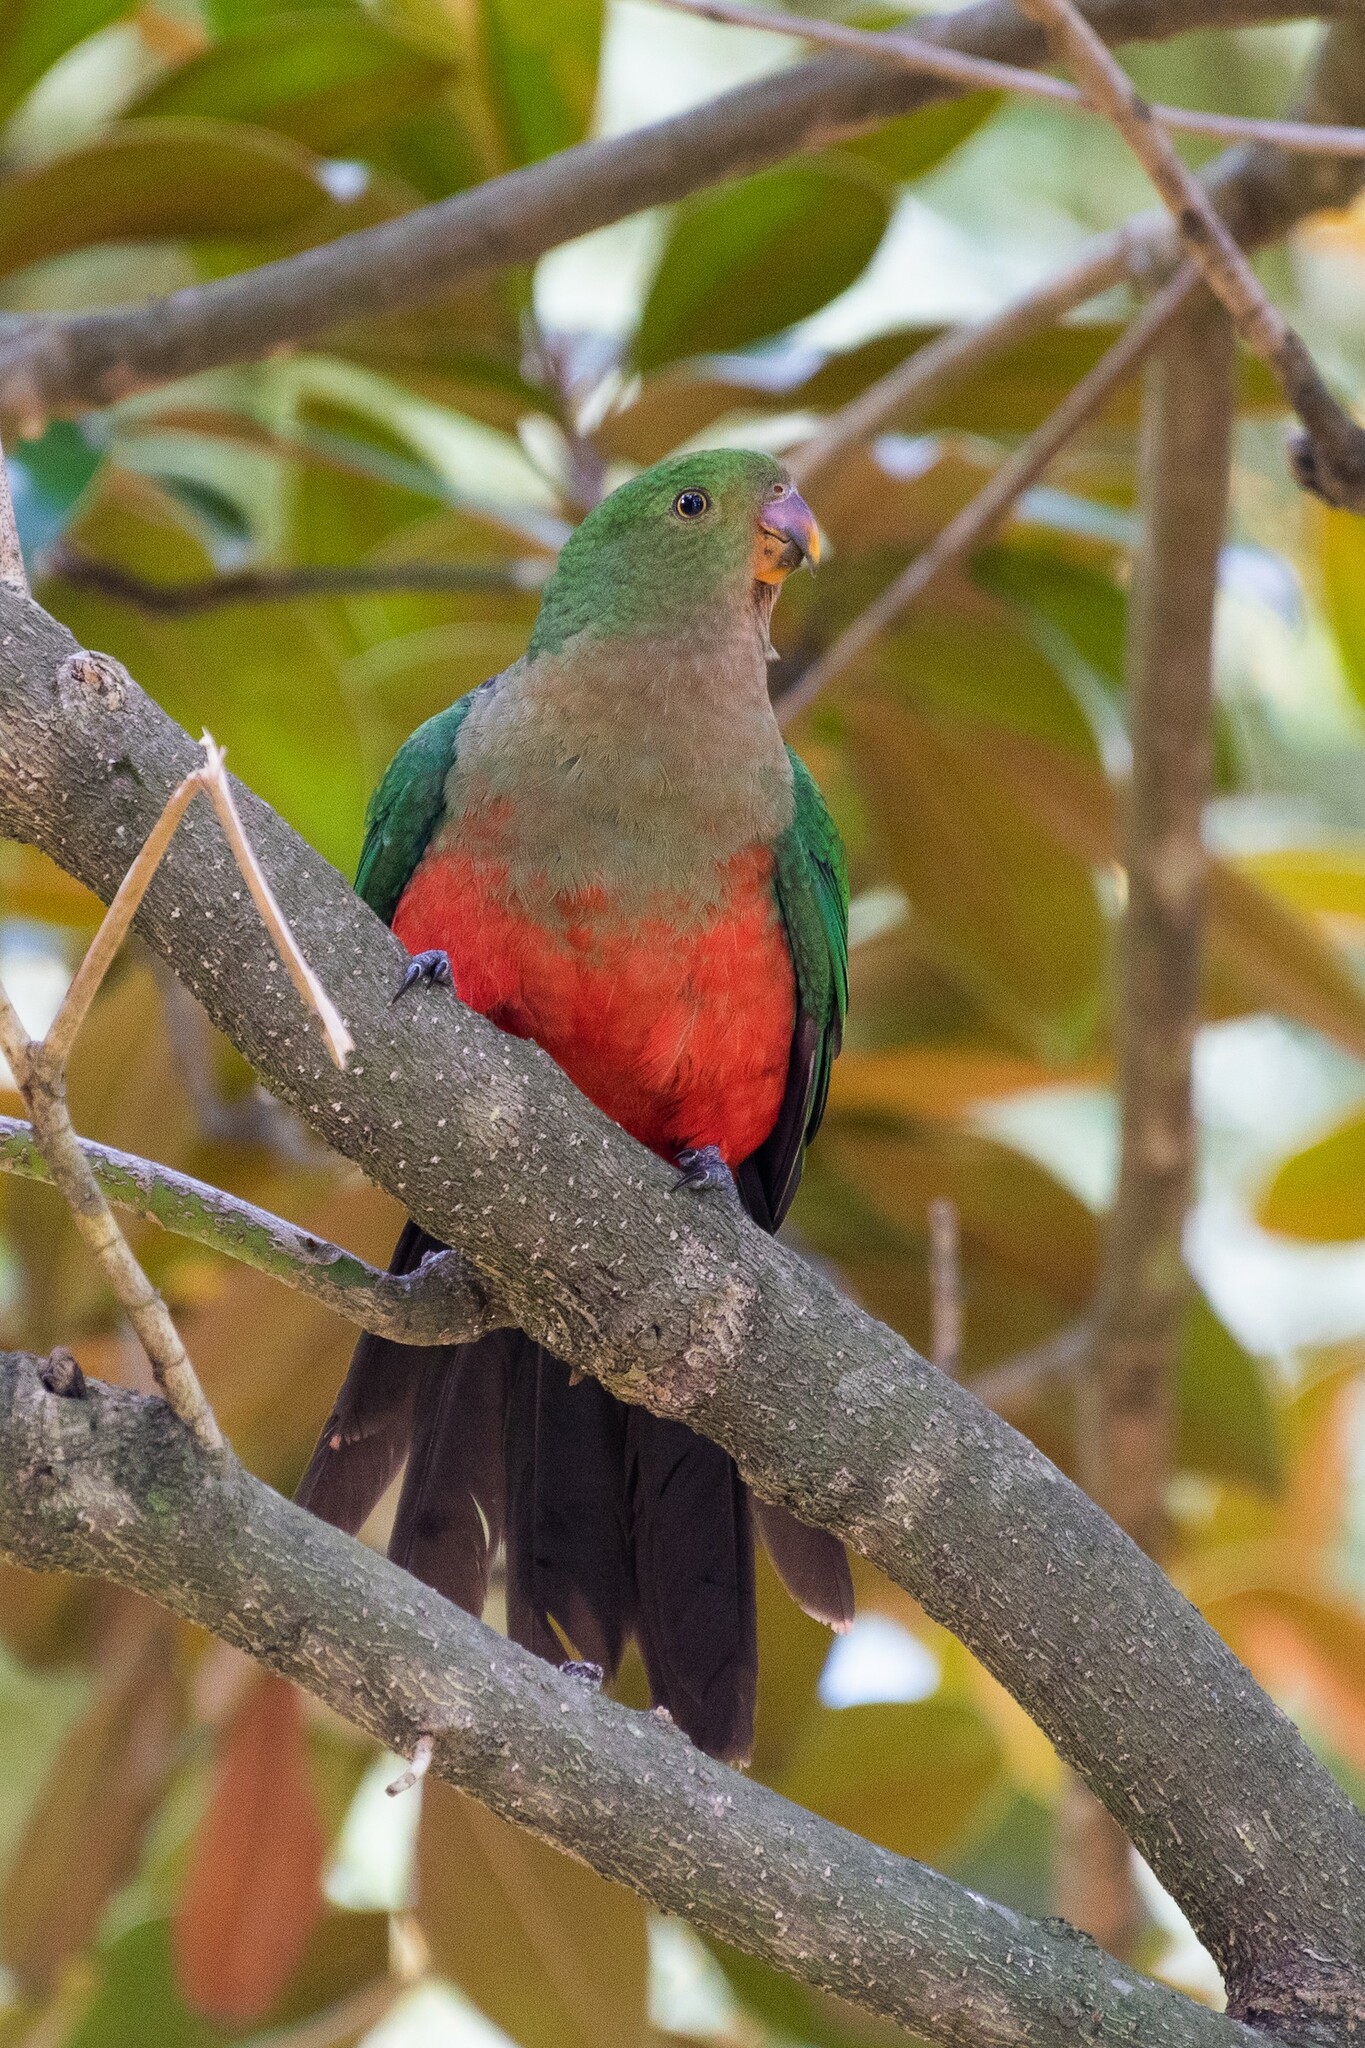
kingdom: Animalia
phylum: Chordata
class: Aves
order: Psittaciformes
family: Psittacidae
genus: Alisterus
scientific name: Alisterus scapularis
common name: Australian king parrot
